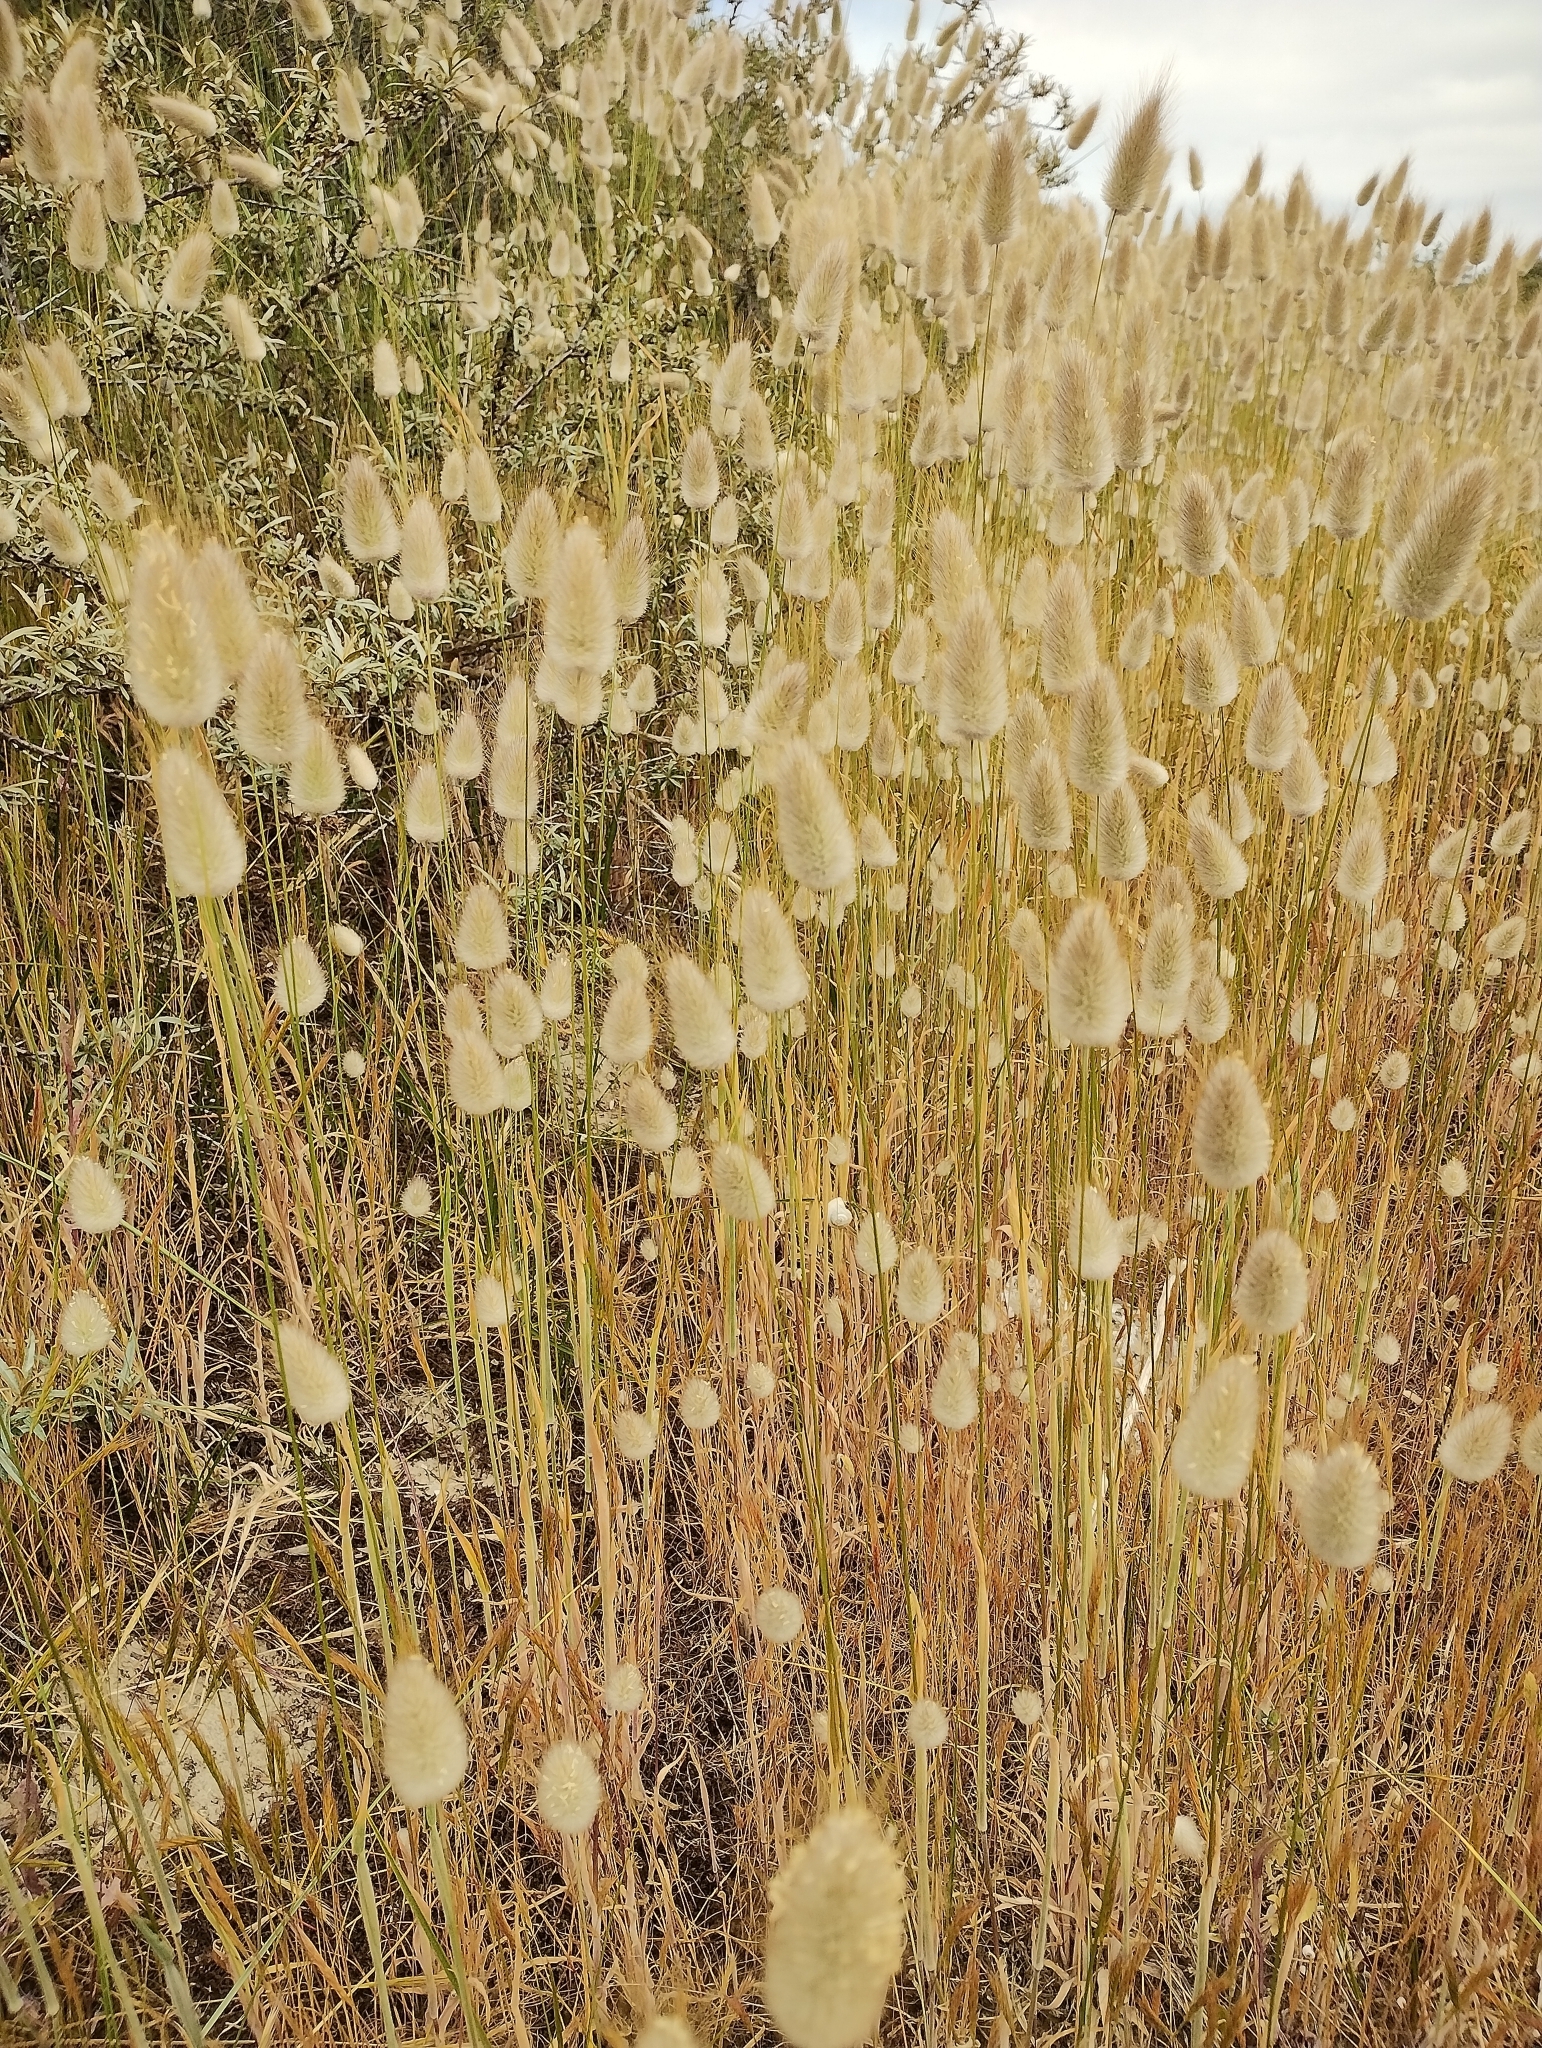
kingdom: Plantae
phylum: Tracheophyta
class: Liliopsida
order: Poales
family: Poaceae
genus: Lagurus
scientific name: Lagurus ovatus
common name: Hare's-tail
